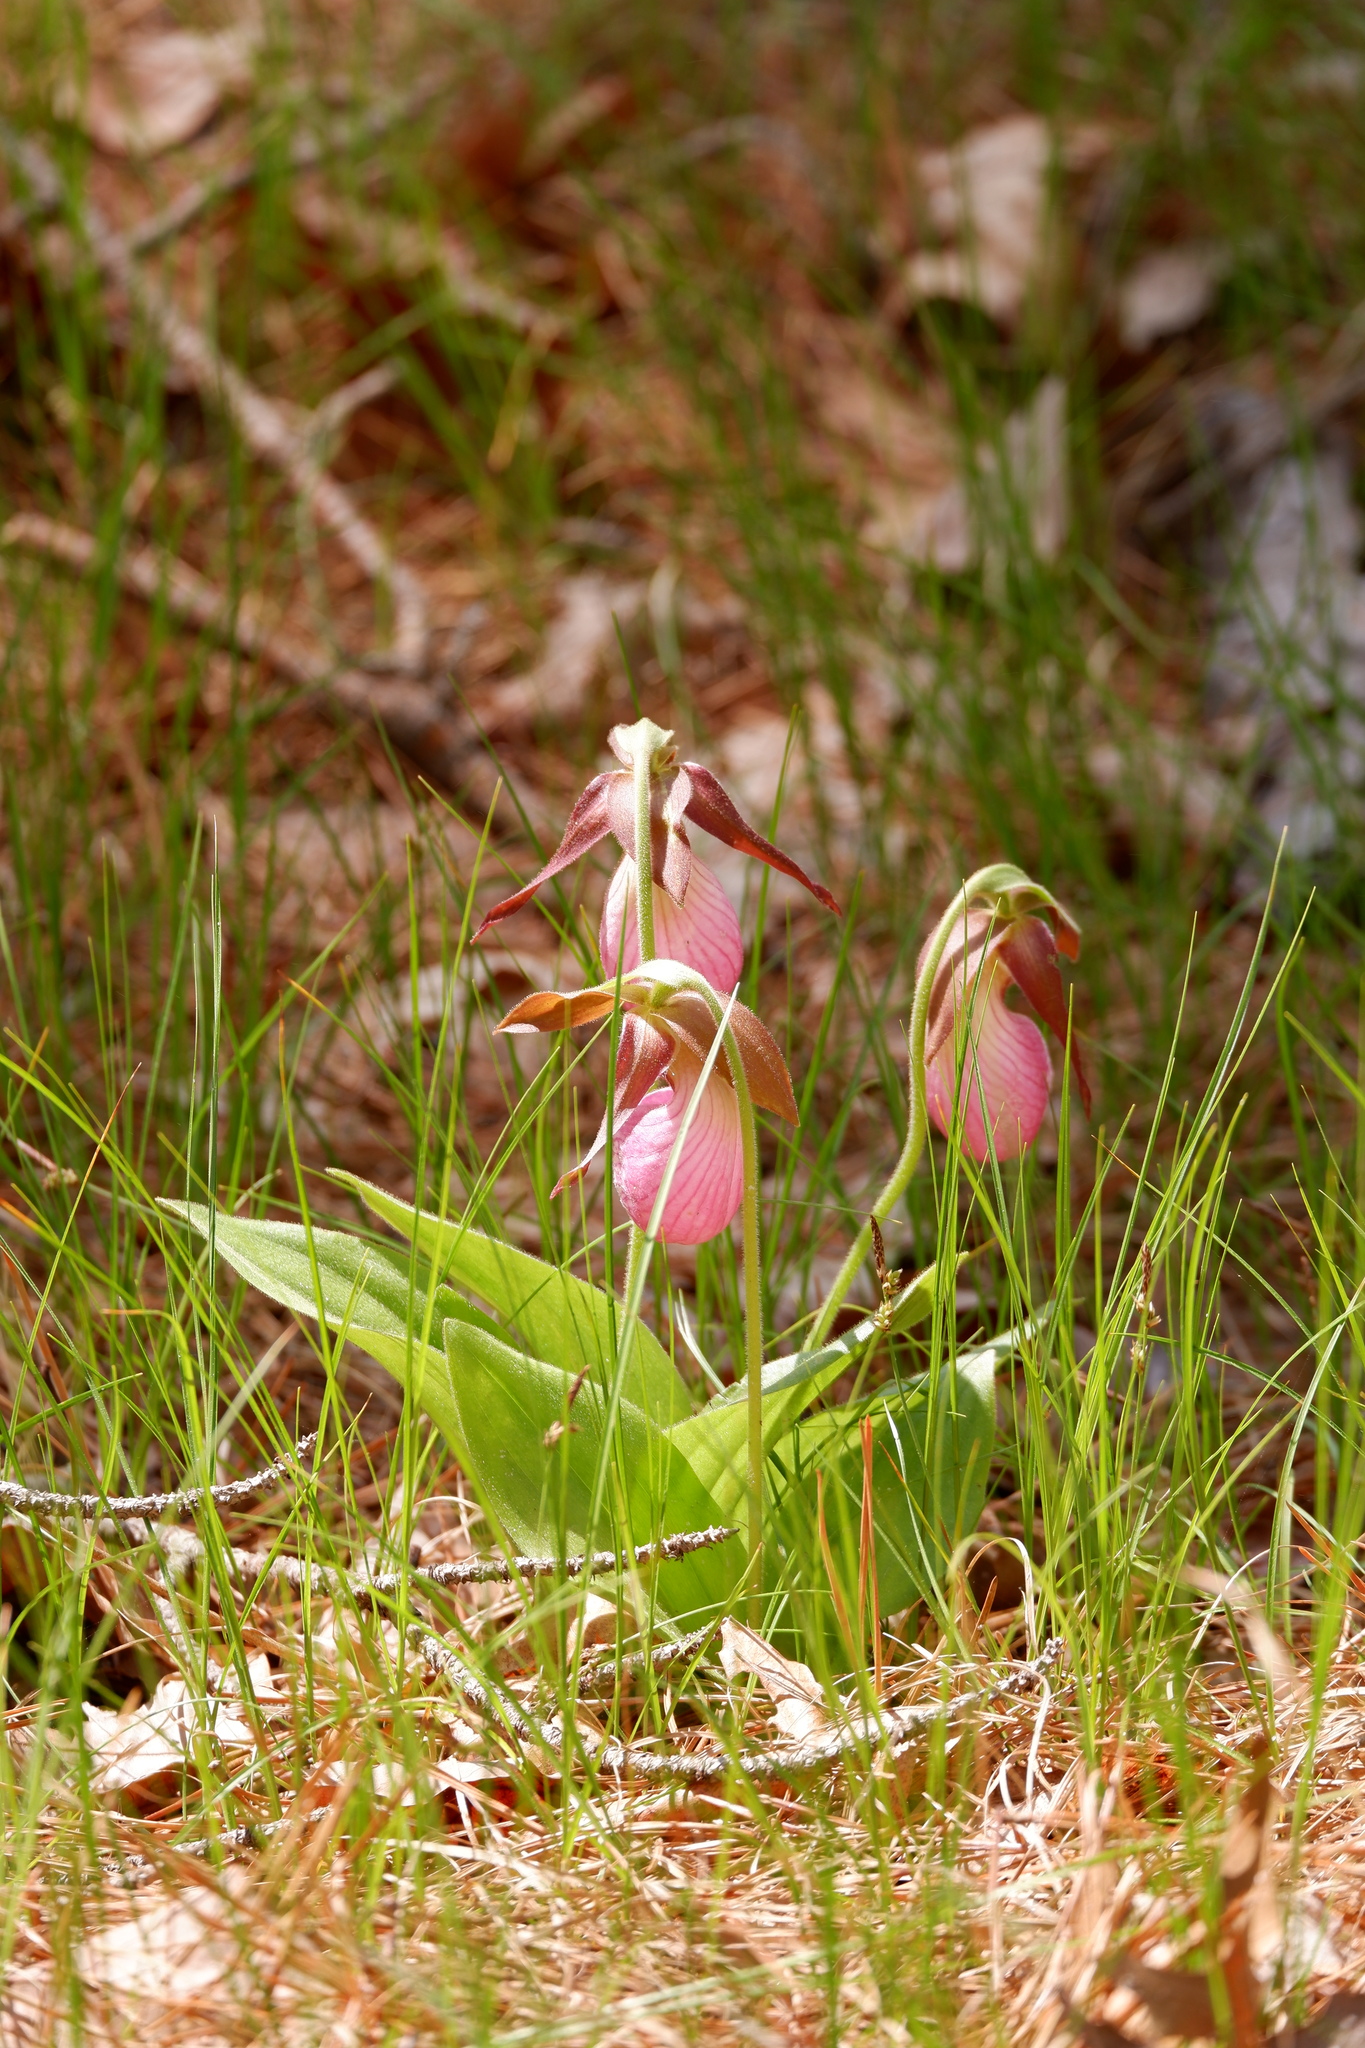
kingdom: Plantae
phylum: Tracheophyta
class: Liliopsida
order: Asparagales
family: Orchidaceae
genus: Cypripedium
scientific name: Cypripedium acaule
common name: Pink lady's-slipper
